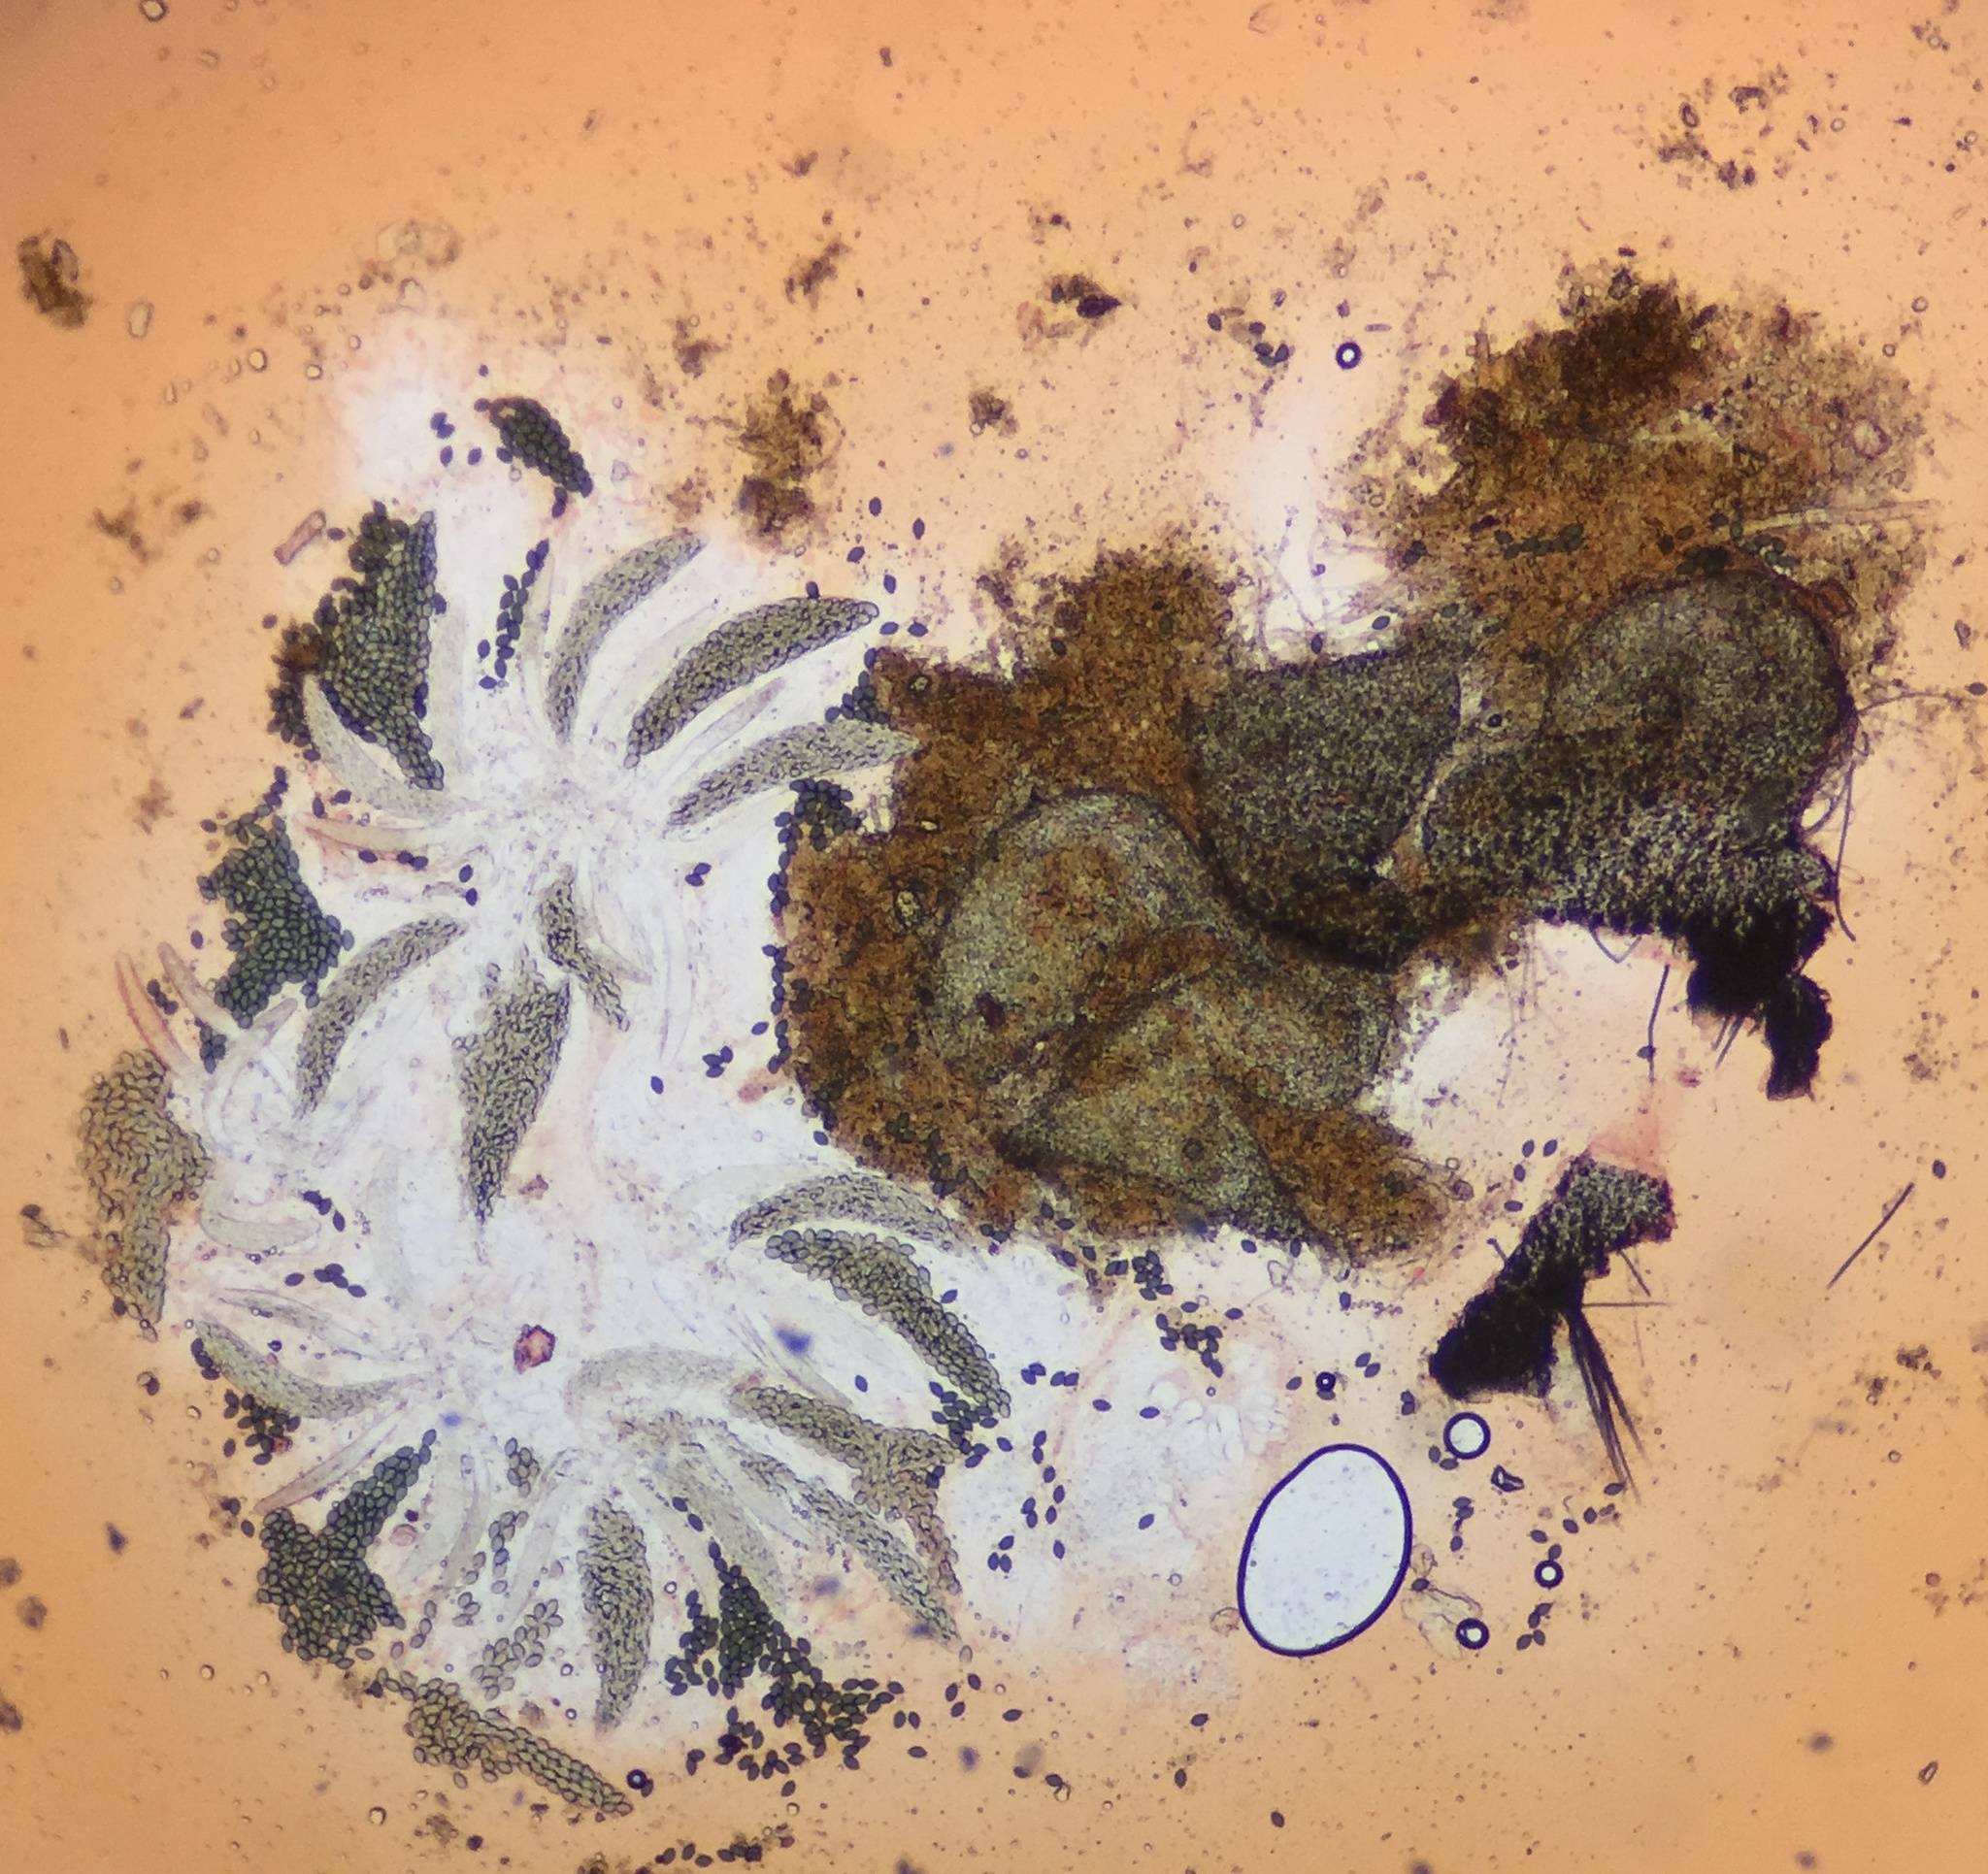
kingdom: Fungi
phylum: Ascomycota
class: Sordariomycetes
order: Sordariales
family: Podosporaceae
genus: Triangularia
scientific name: Triangularia setosa
